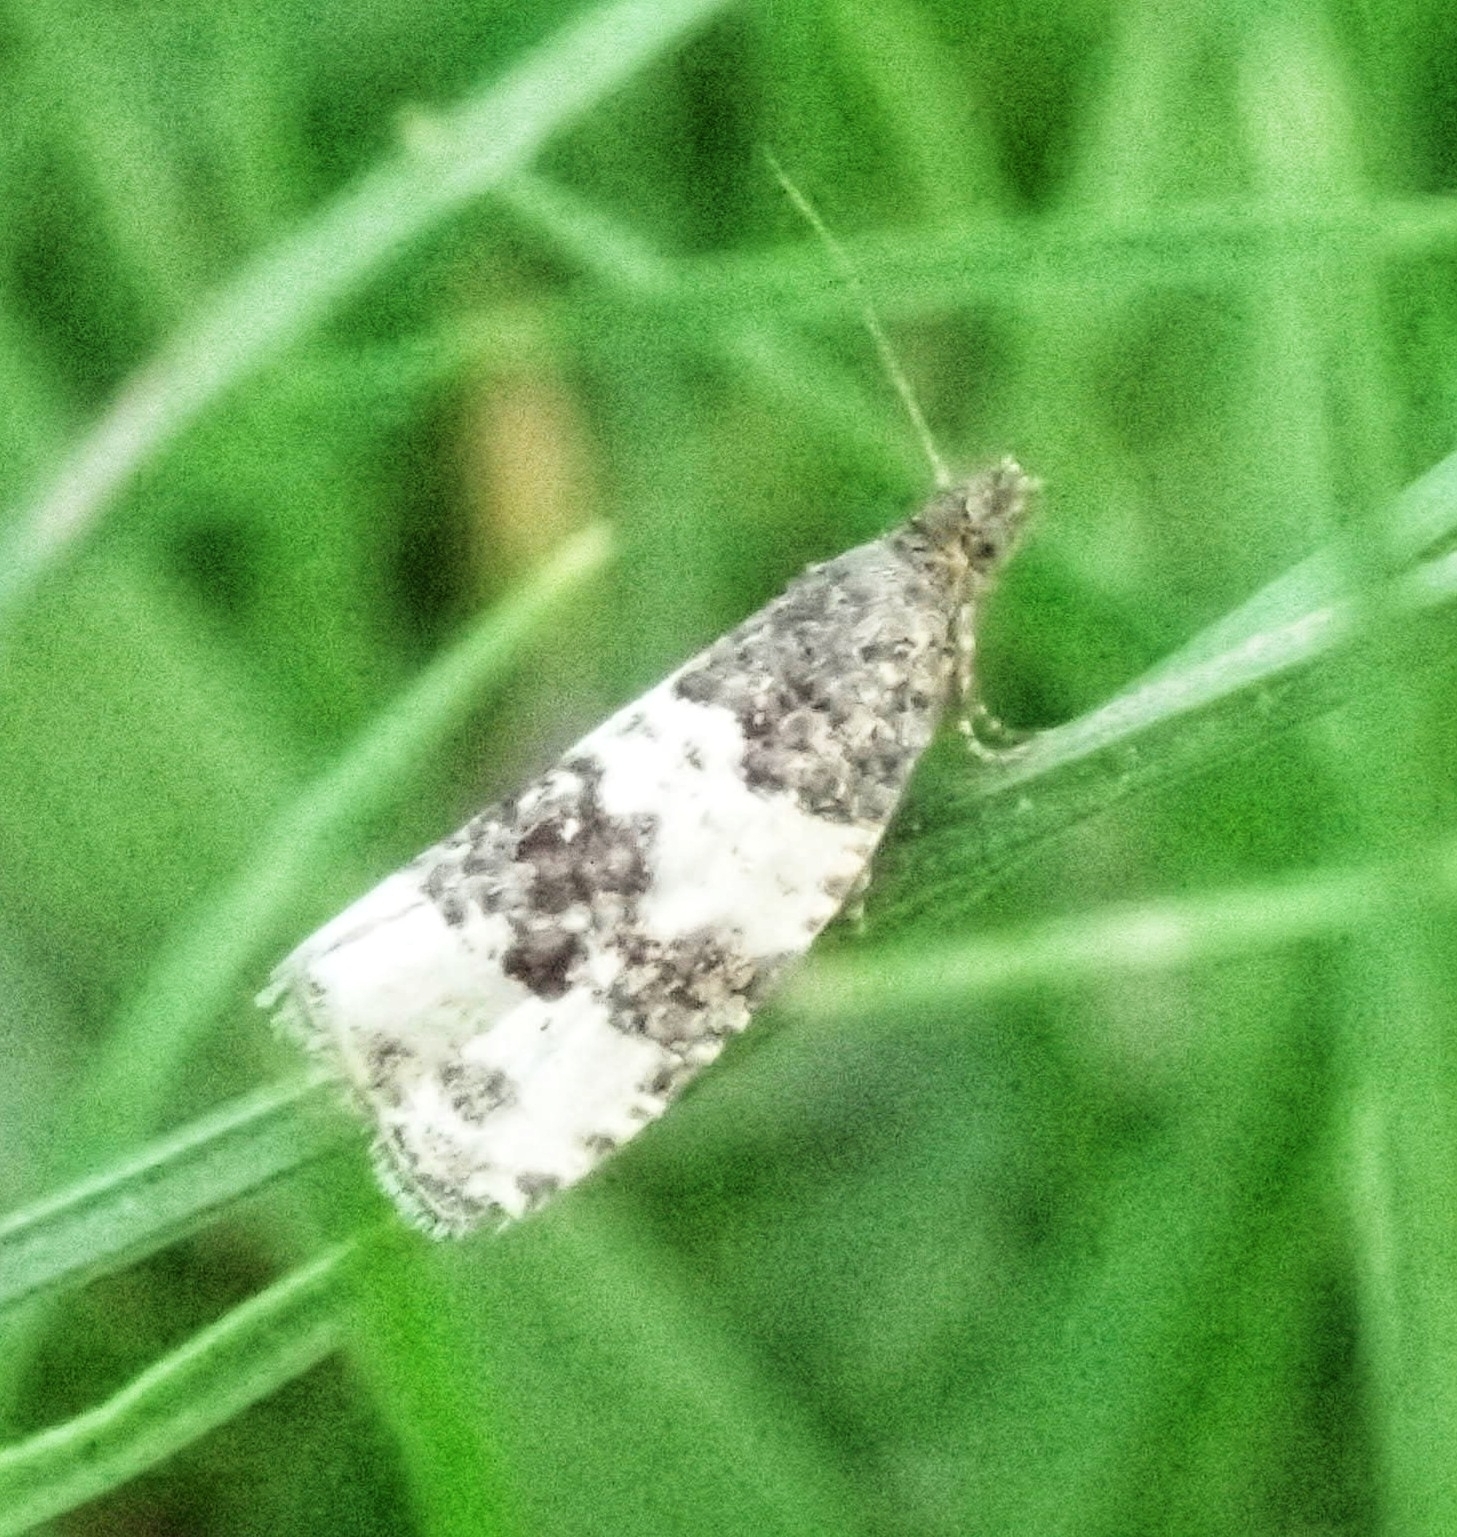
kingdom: Animalia
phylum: Arthropoda
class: Insecta
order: Lepidoptera
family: Tortricidae
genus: Olethreutes
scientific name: Olethreutes bipartitana
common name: Divided olethreutes moth
